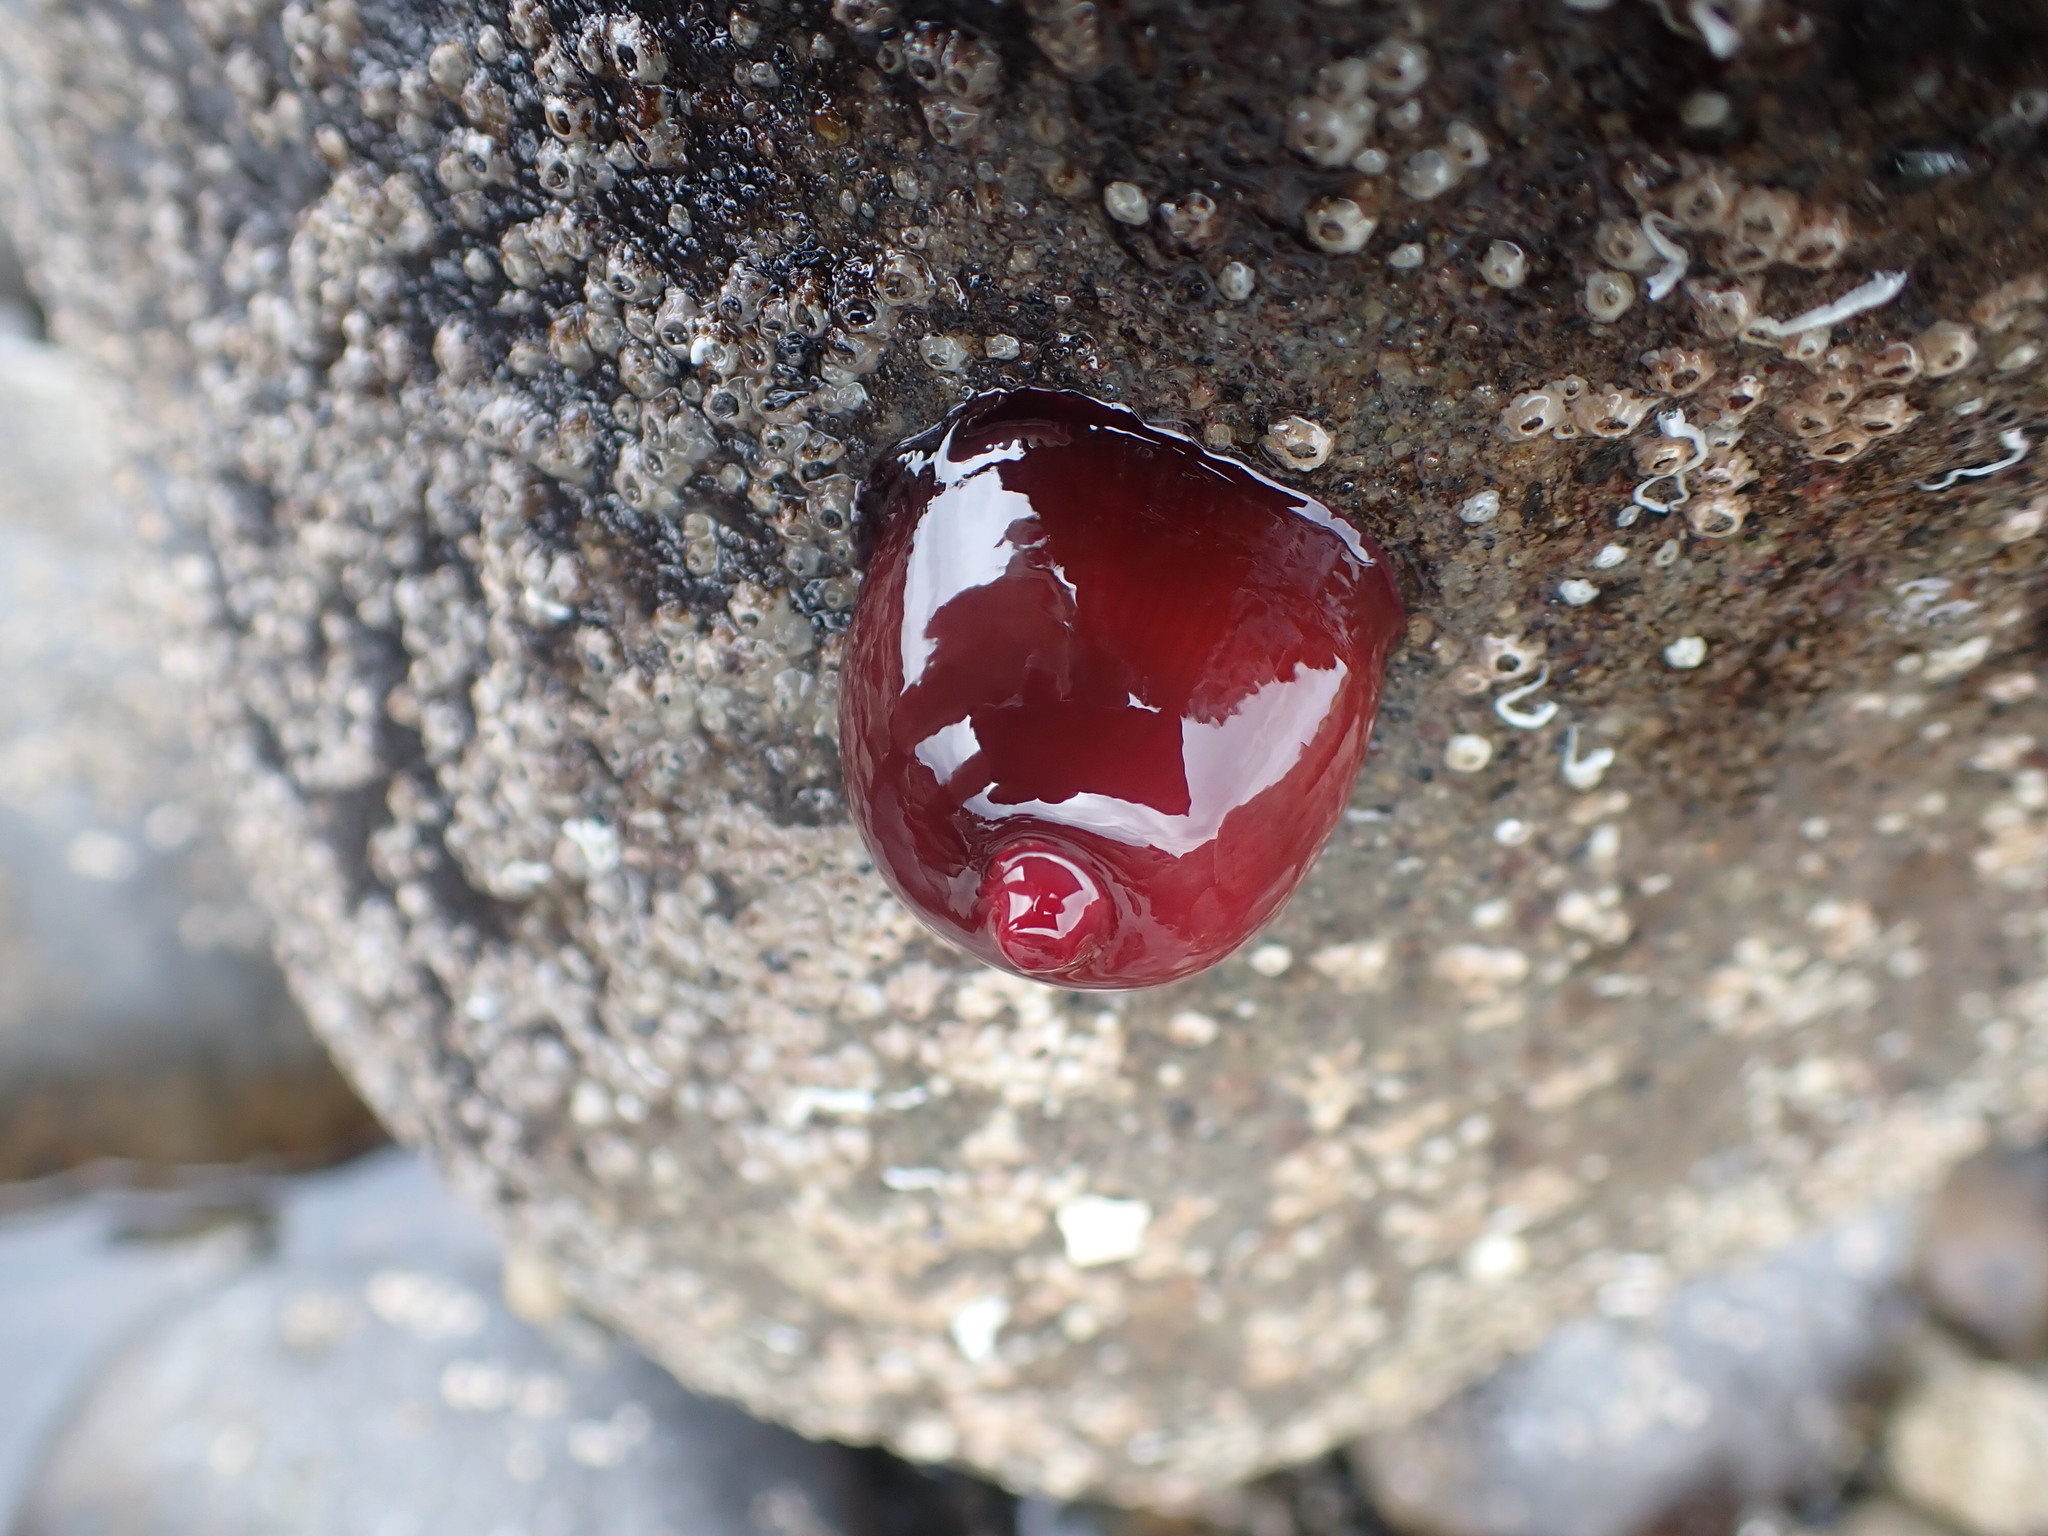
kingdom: Animalia
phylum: Cnidaria
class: Anthozoa
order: Actiniaria
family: Actiniidae
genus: Actinia
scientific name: Actinia tenebrosa
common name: Waratah anemone
